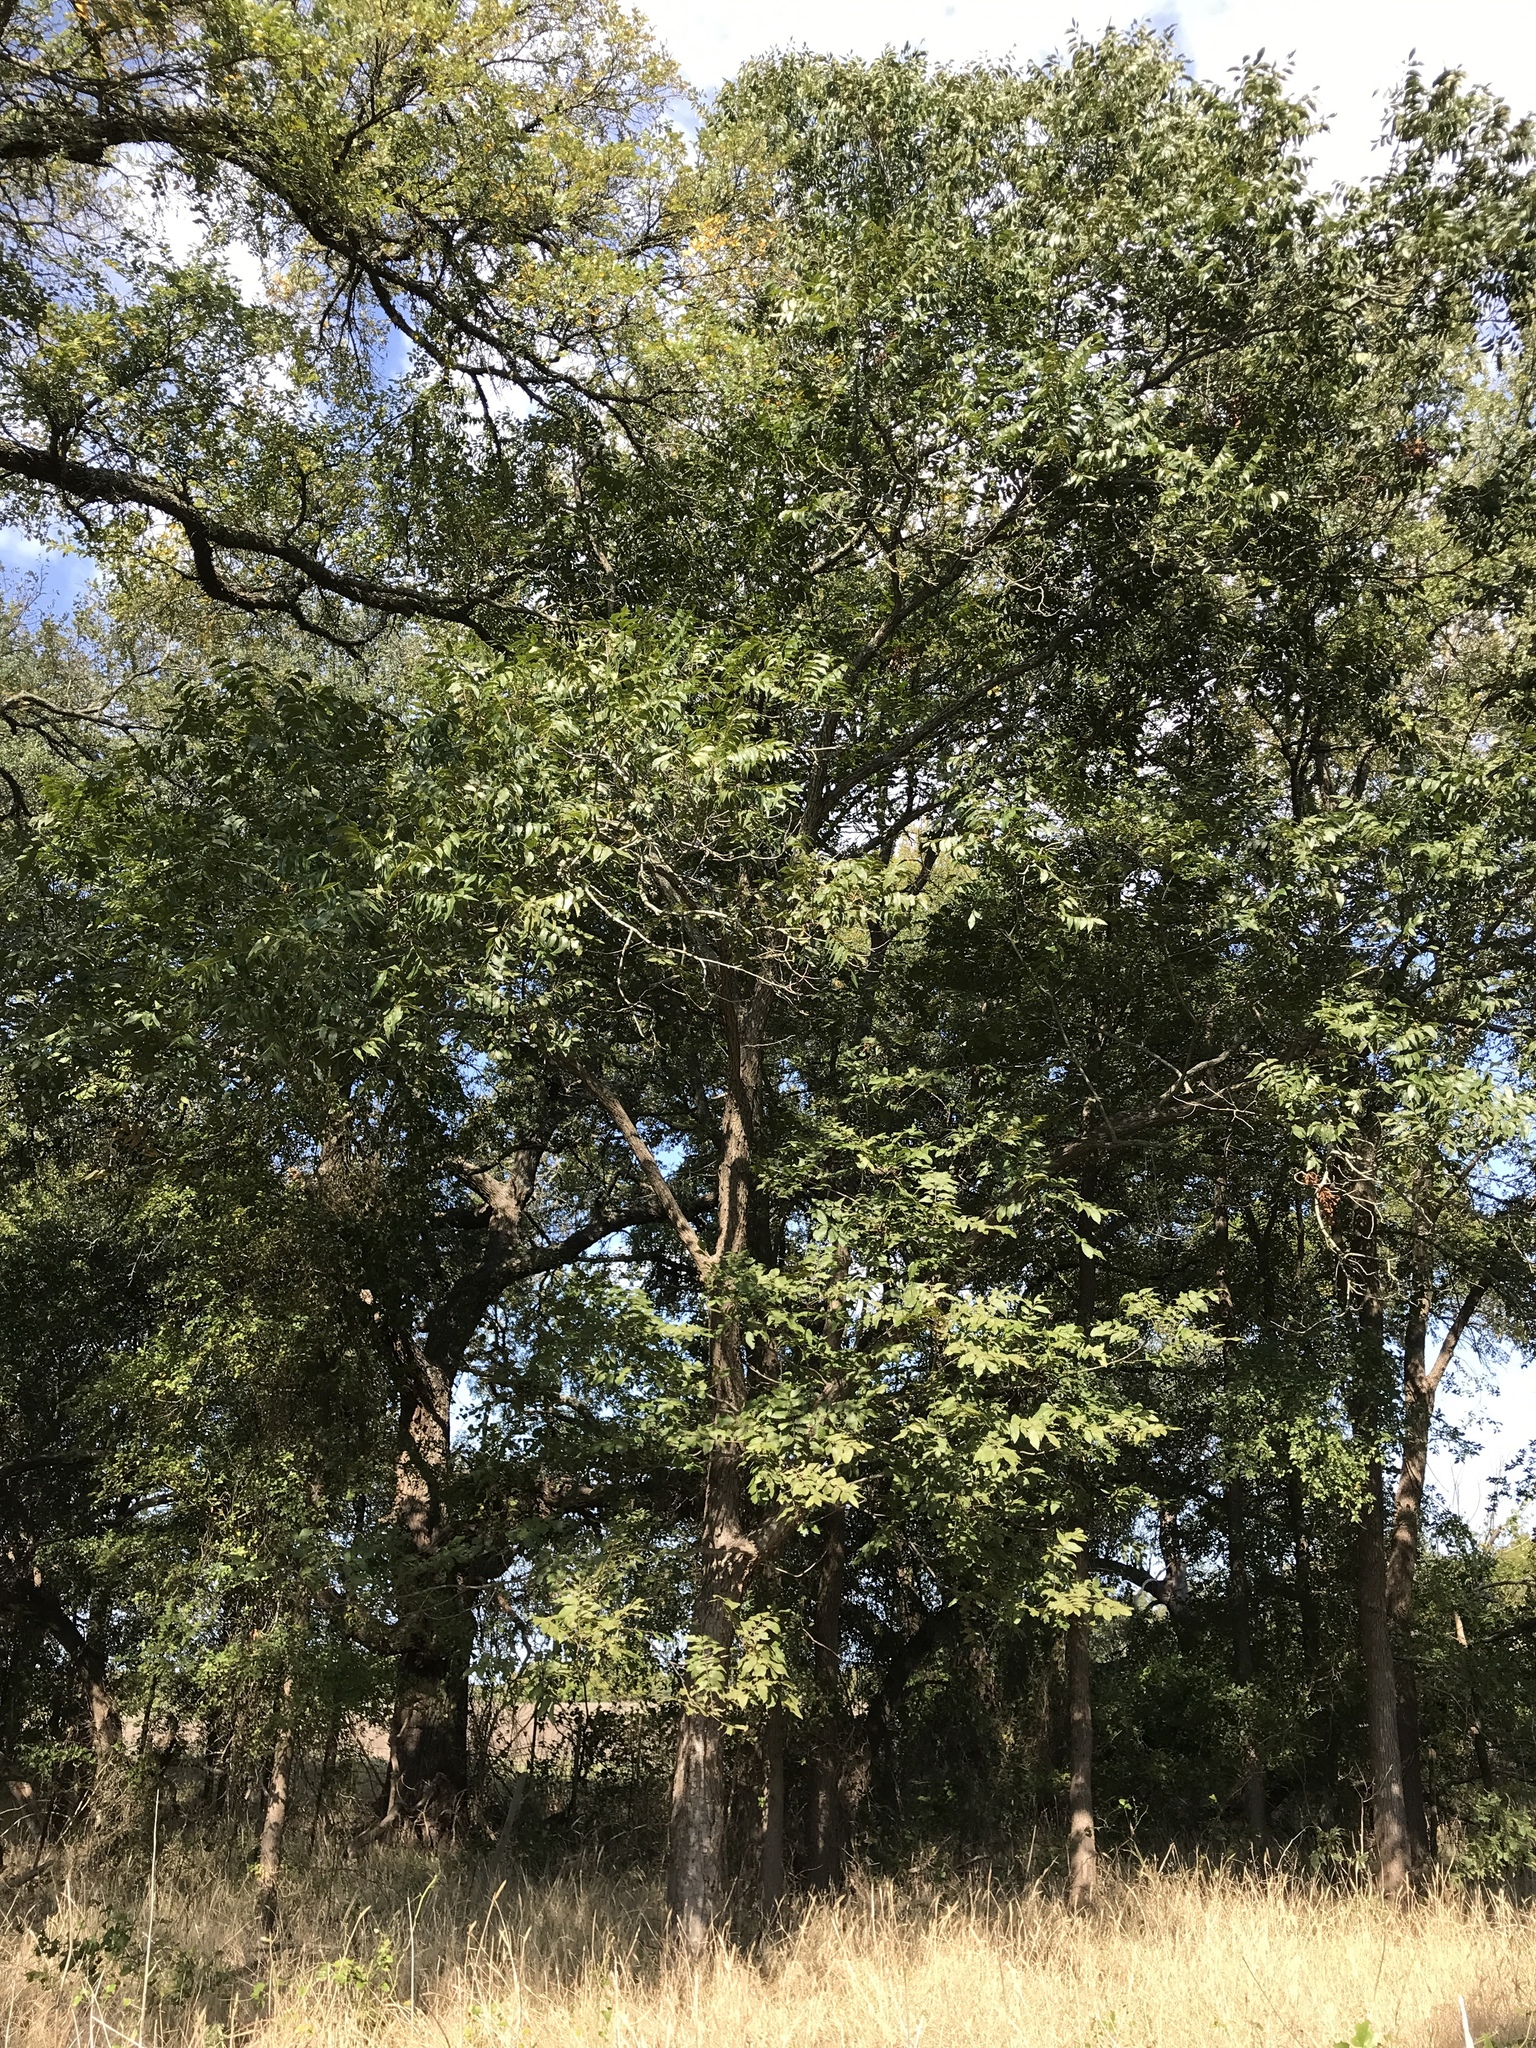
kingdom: Plantae
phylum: Tracheophyta
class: Magnoliopsida
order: Fagales
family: Juglandaceae
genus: Carya
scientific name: Carya illinoinensis
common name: Pecan
